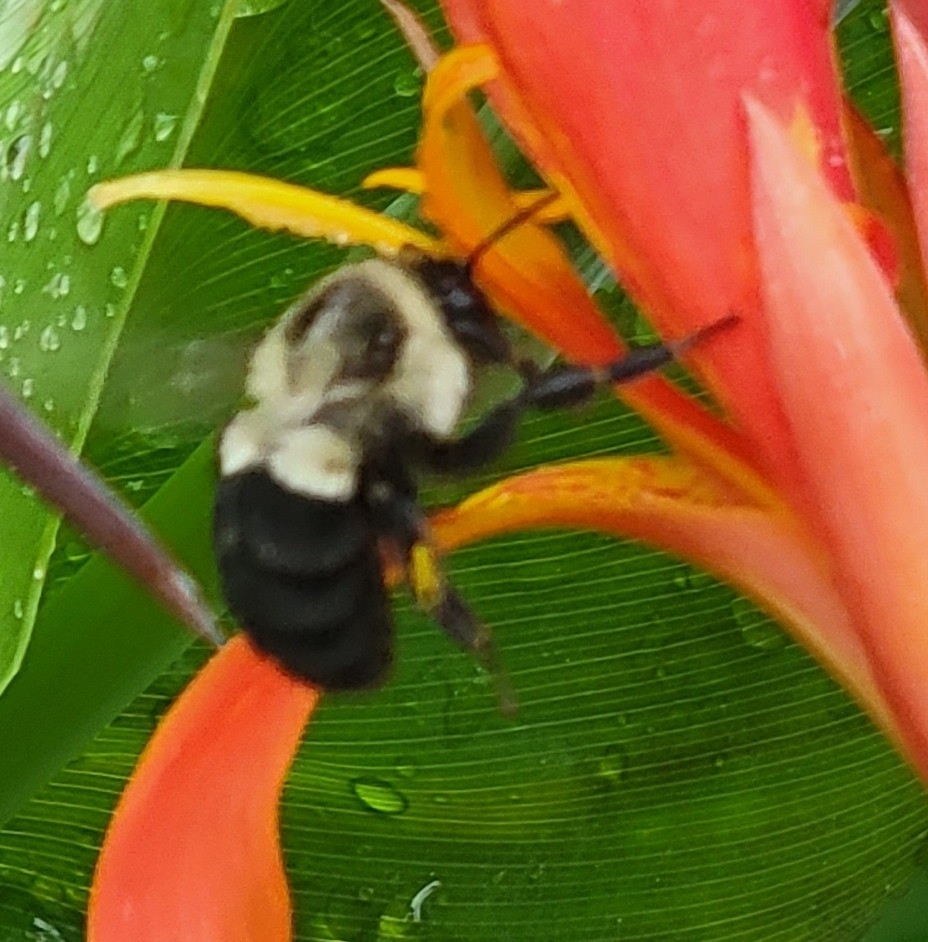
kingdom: Animalia
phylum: Arthropoda
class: Insecta
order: Hymenoptera
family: Apidae
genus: Bombus
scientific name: Bombus impatiens
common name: Common eastern bumble bee
